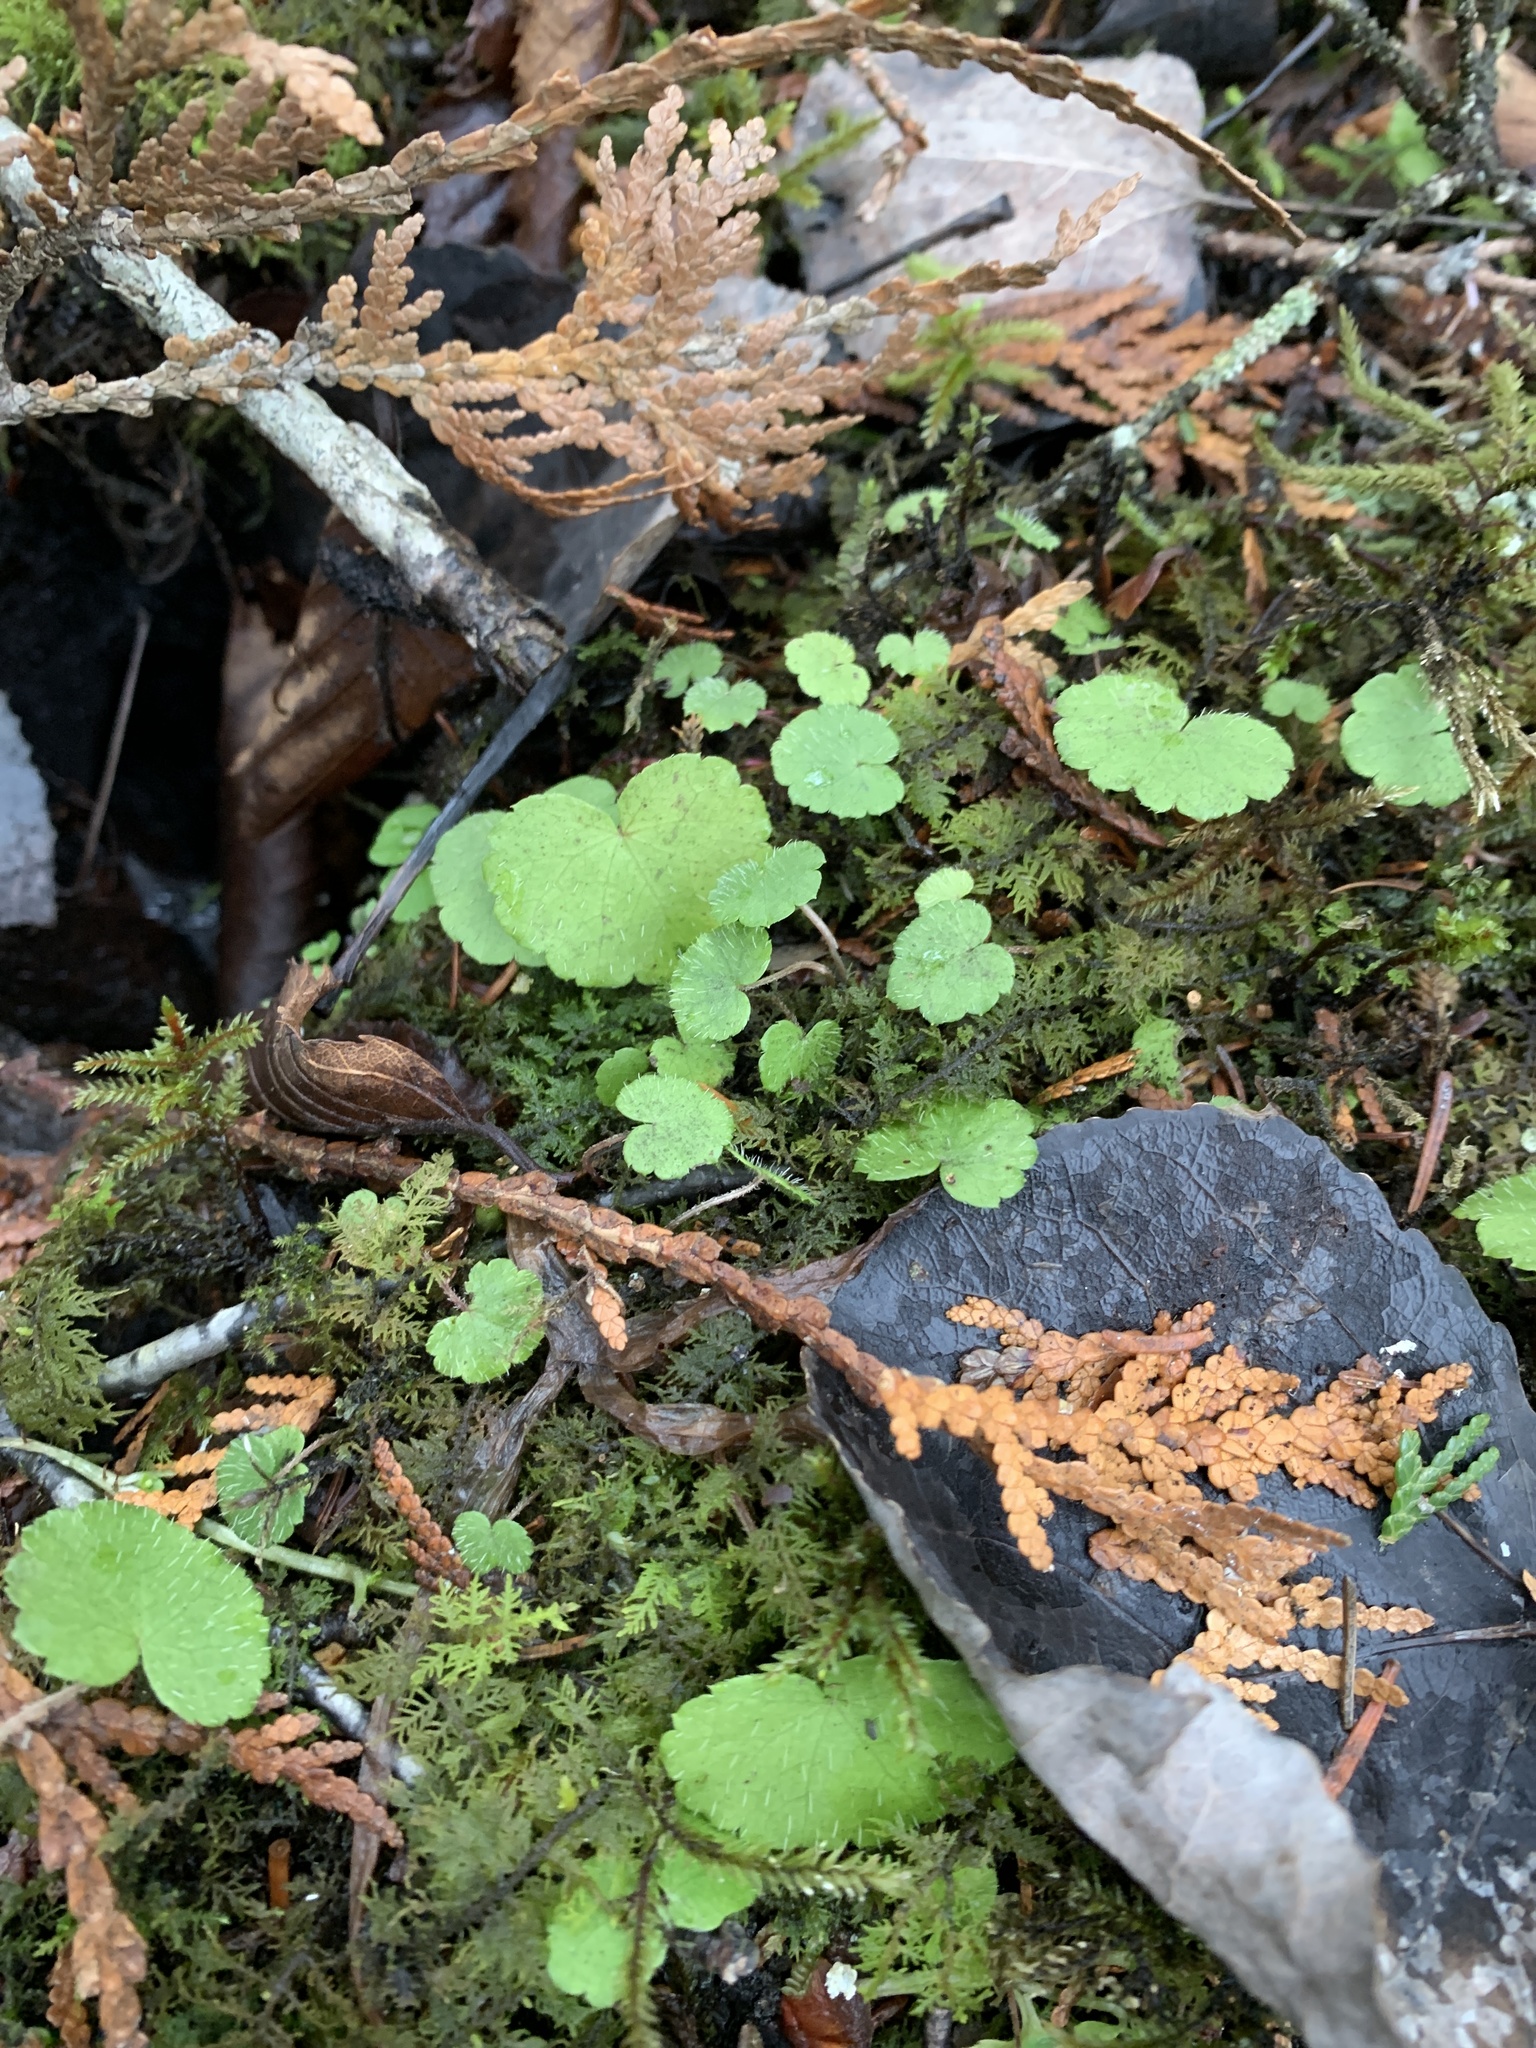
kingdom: Plantae
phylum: Tracheophyta
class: Magnoliopsida
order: Apiales
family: Araliaceae
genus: Hydrocotyle
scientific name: Hydrocotyle americana
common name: American water-pennywort
